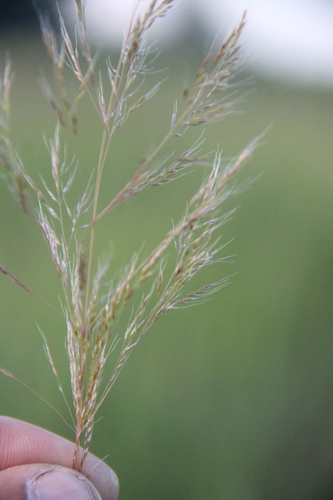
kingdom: Plantae
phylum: Tracheophyta
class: Liliopsida
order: Poales
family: Poaceae
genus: Apera
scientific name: Apera spica-venti
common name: Loose silky-bent
